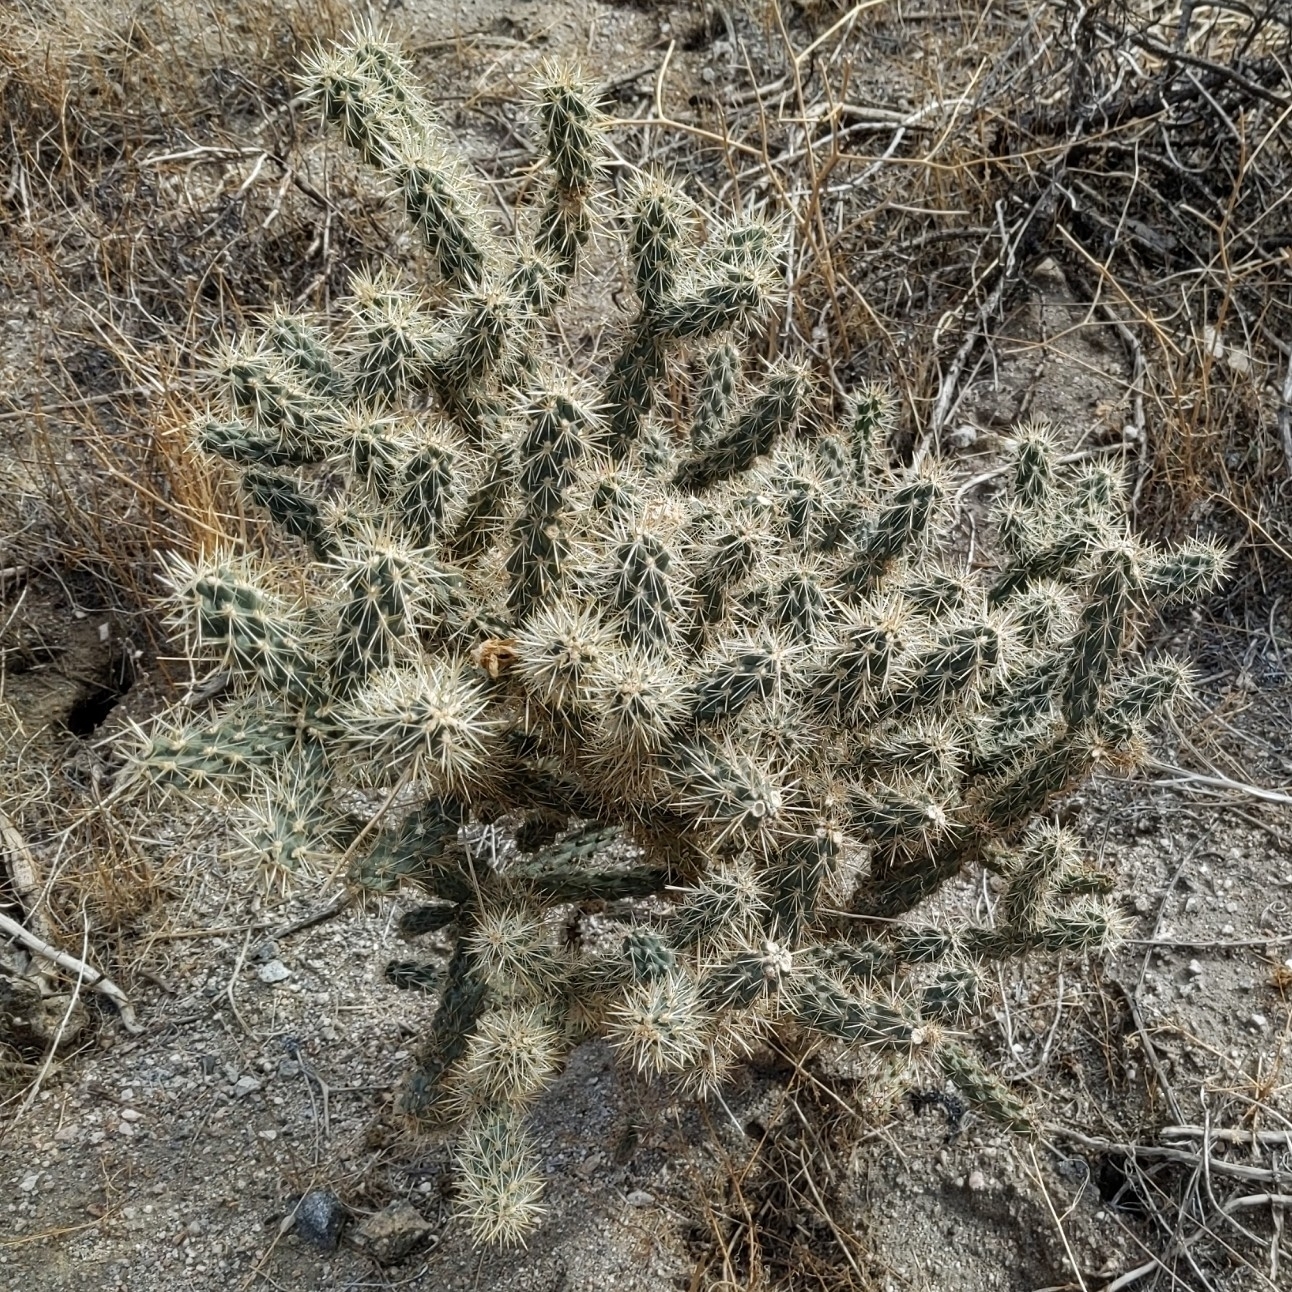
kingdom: Plantae
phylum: Tracheophyta
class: Magnoliopsida
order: Caryophyllales
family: Cactaceae
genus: Cylindropuntia
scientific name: Cylindropuntia echinocarpa
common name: Ground cholla
